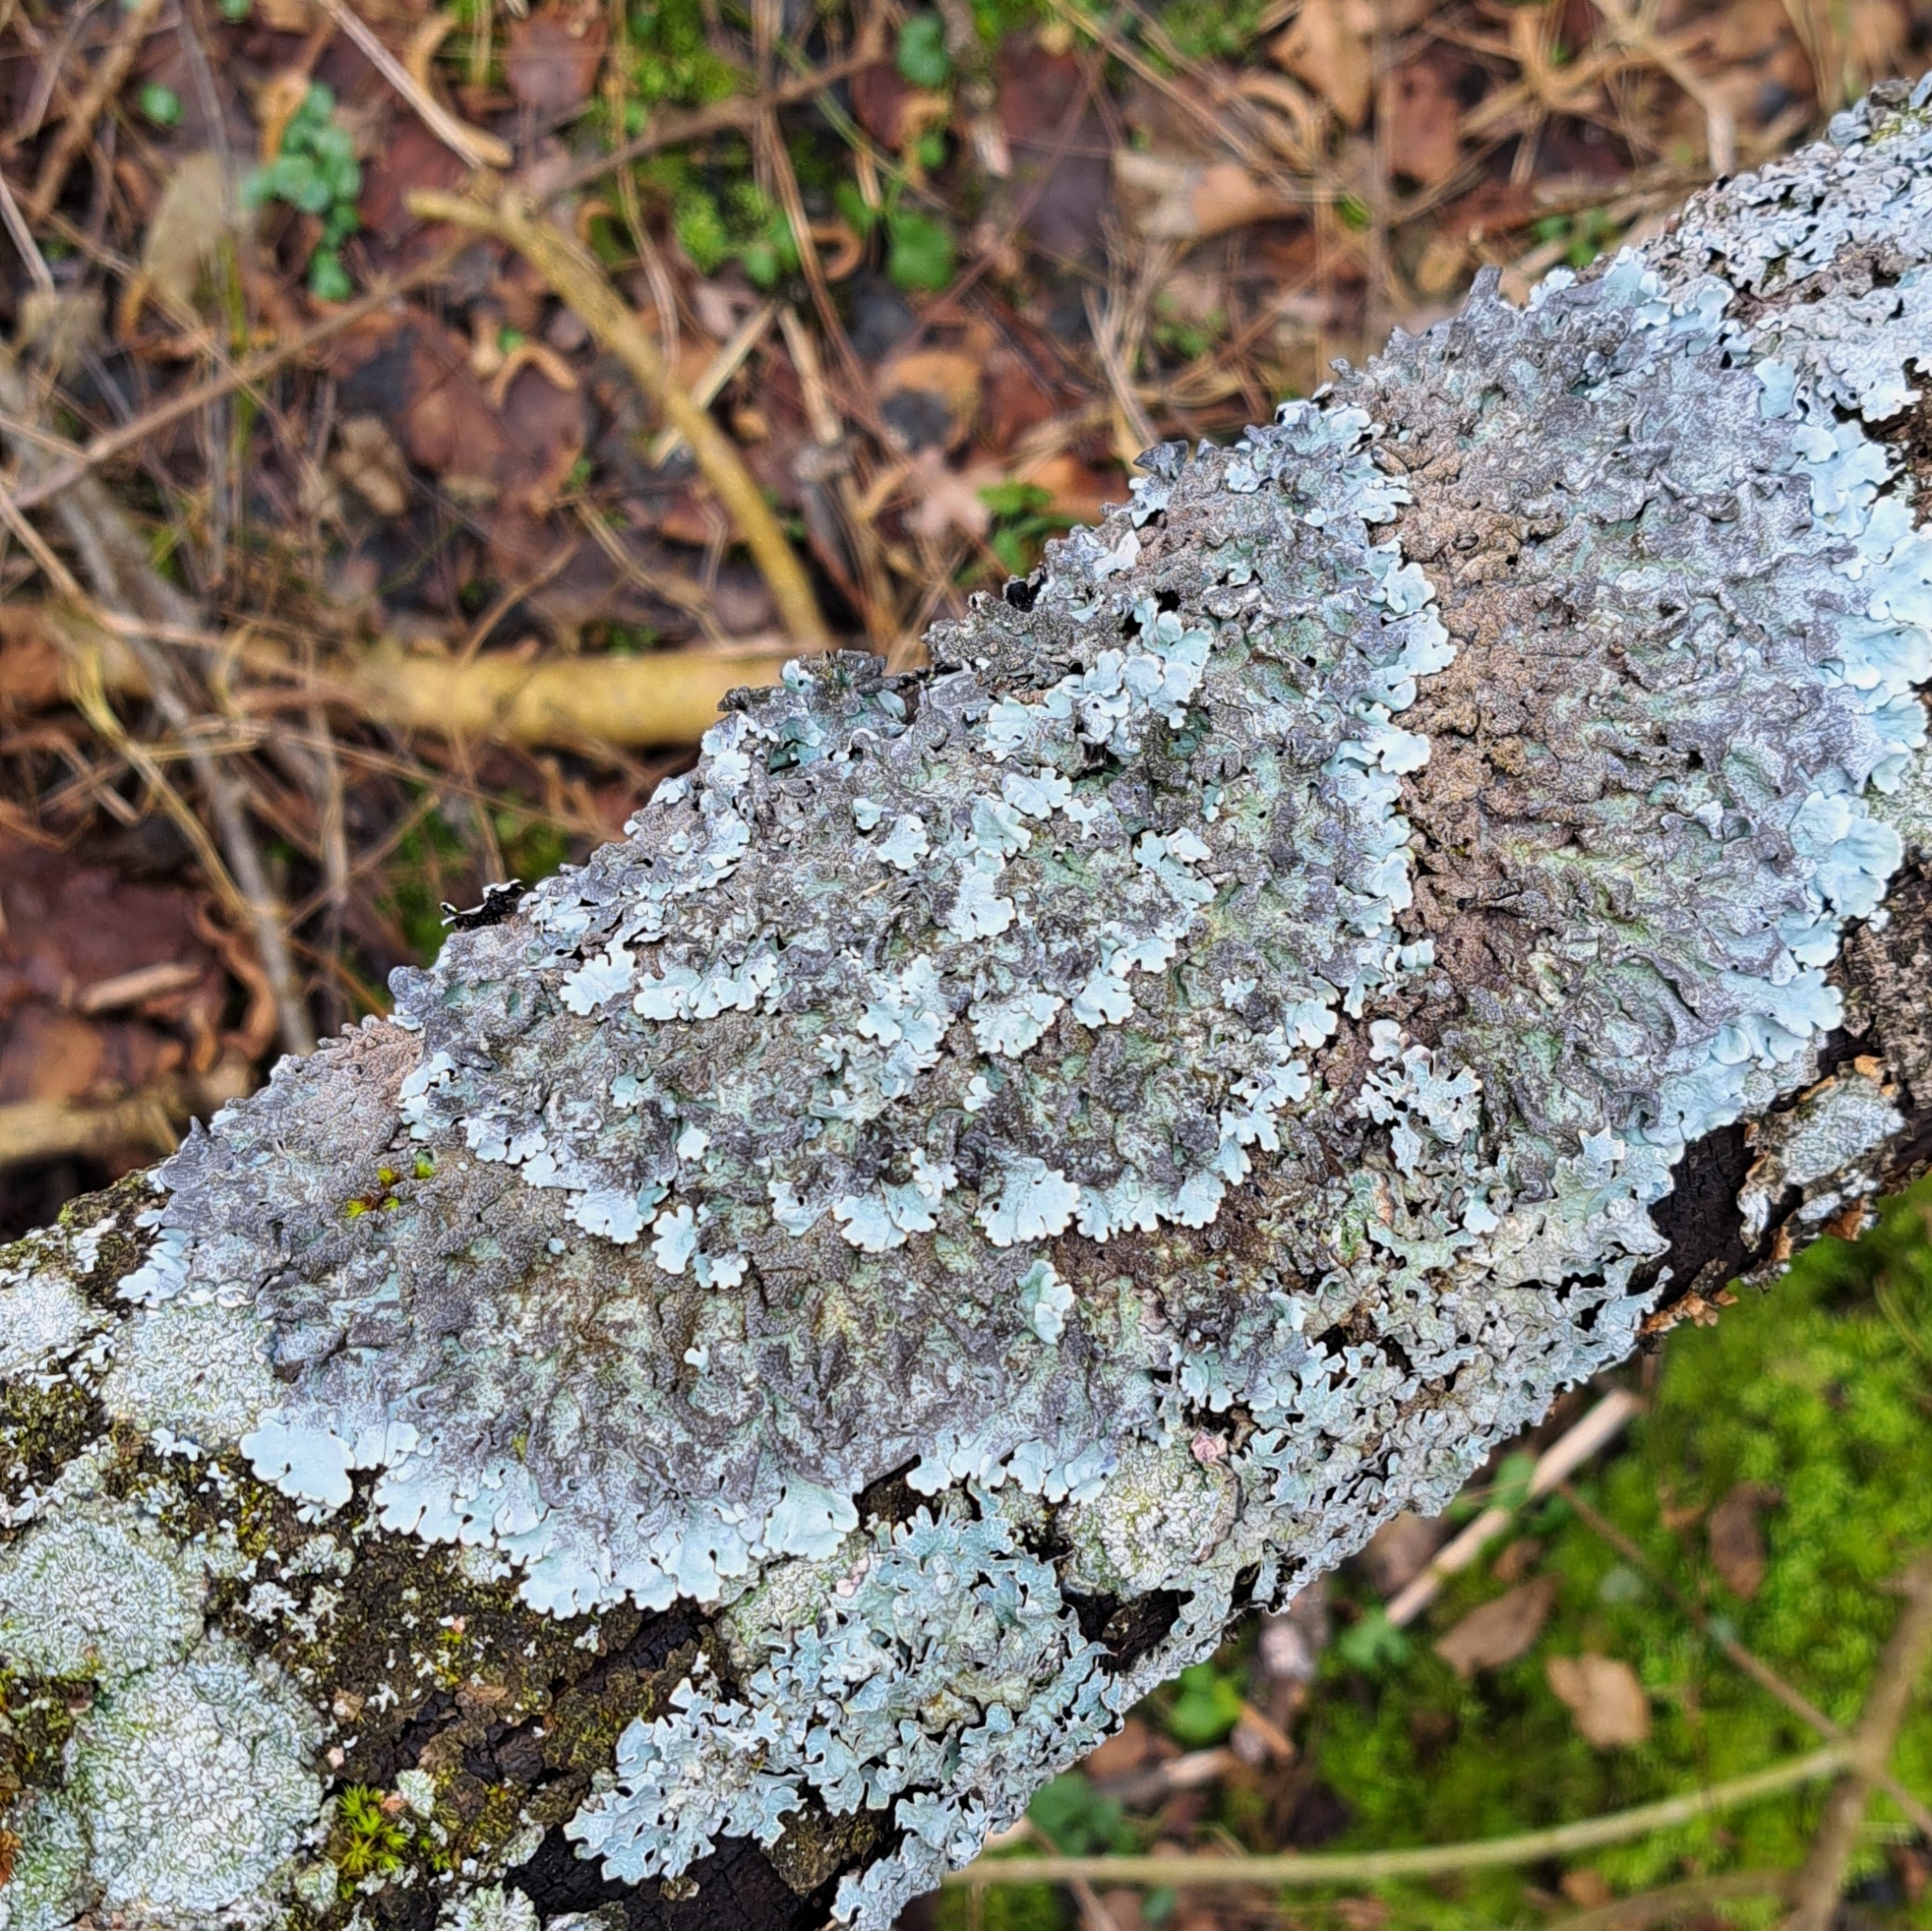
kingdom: Fungi
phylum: Ascomycota
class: Lecanoromycetes
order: Lecanorales
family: Parmeliaceae
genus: Parmelina
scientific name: Parmelina tiliacea
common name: Linden shield lichen
